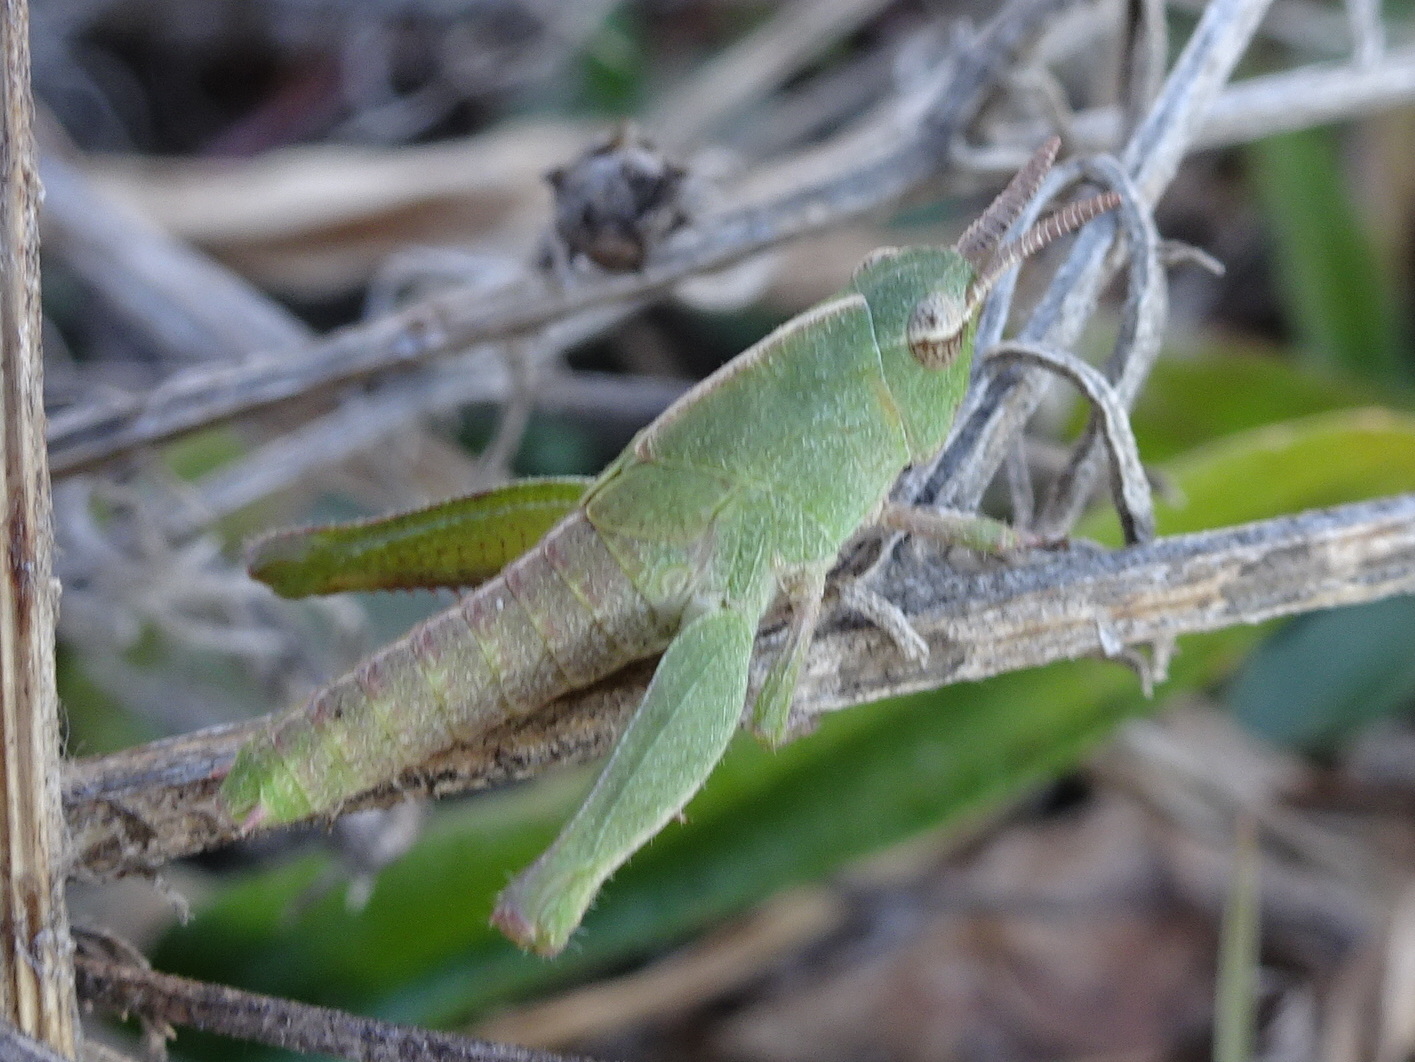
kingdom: Animalia
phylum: Arthropoda
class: Insecta
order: Orthoptera
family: Acrididae
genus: Chortophaga
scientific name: Chortophaga viridifasciata
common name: Green-striped grasshopper
